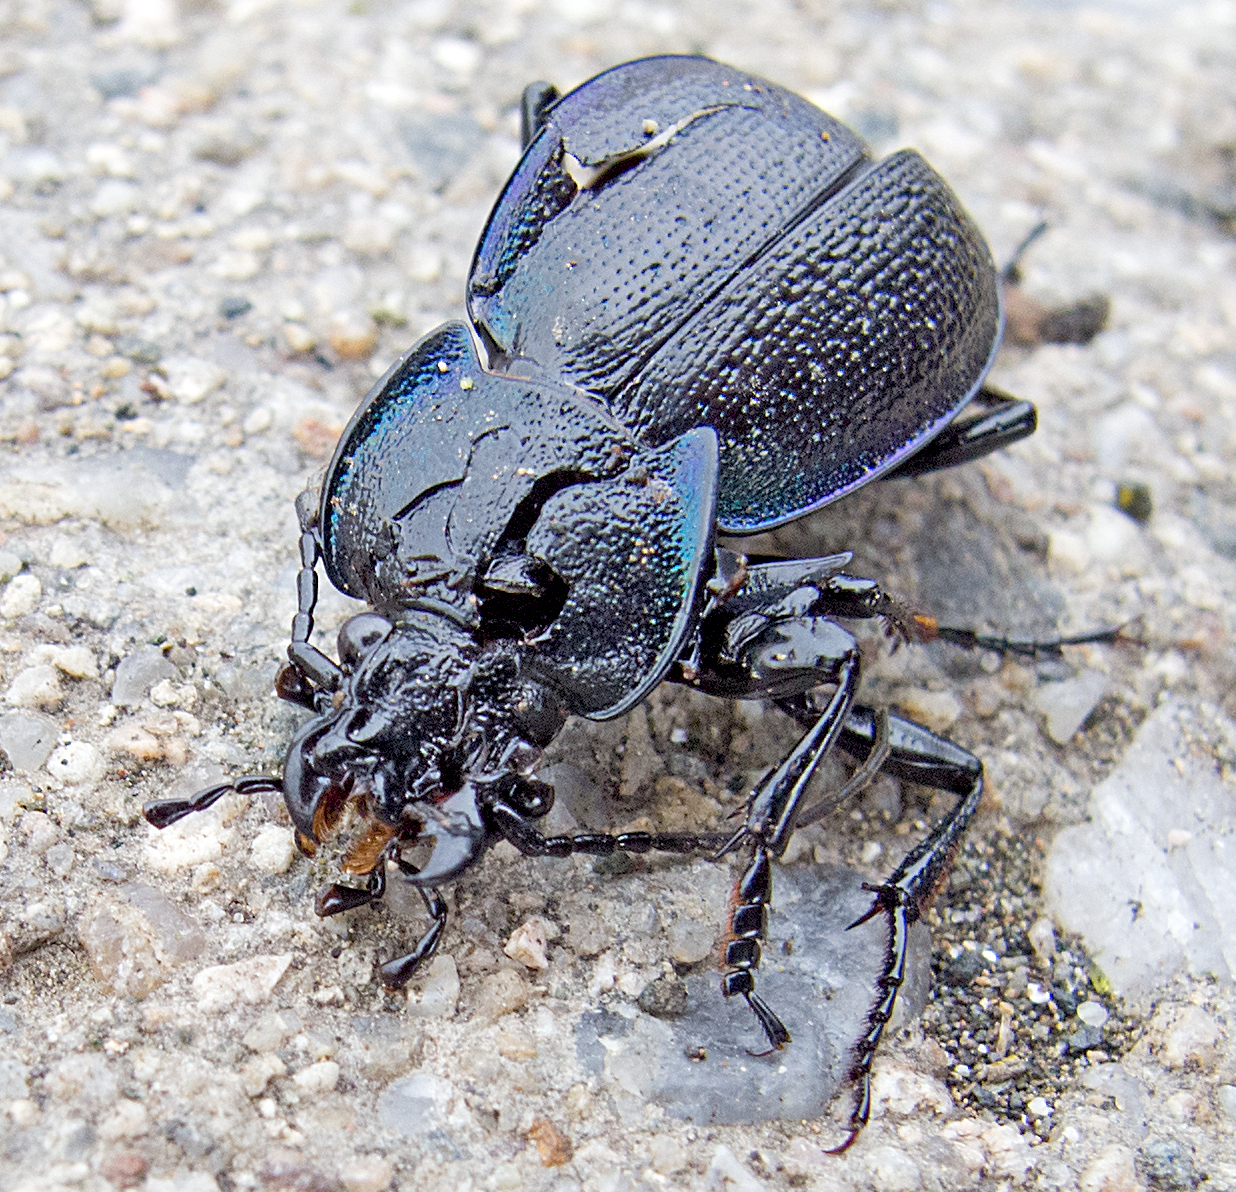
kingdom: Animalia
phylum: Arthropoda
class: Insecta
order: Coleoptera
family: Carabidae
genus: Carabus
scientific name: Carabus wiedemanni
